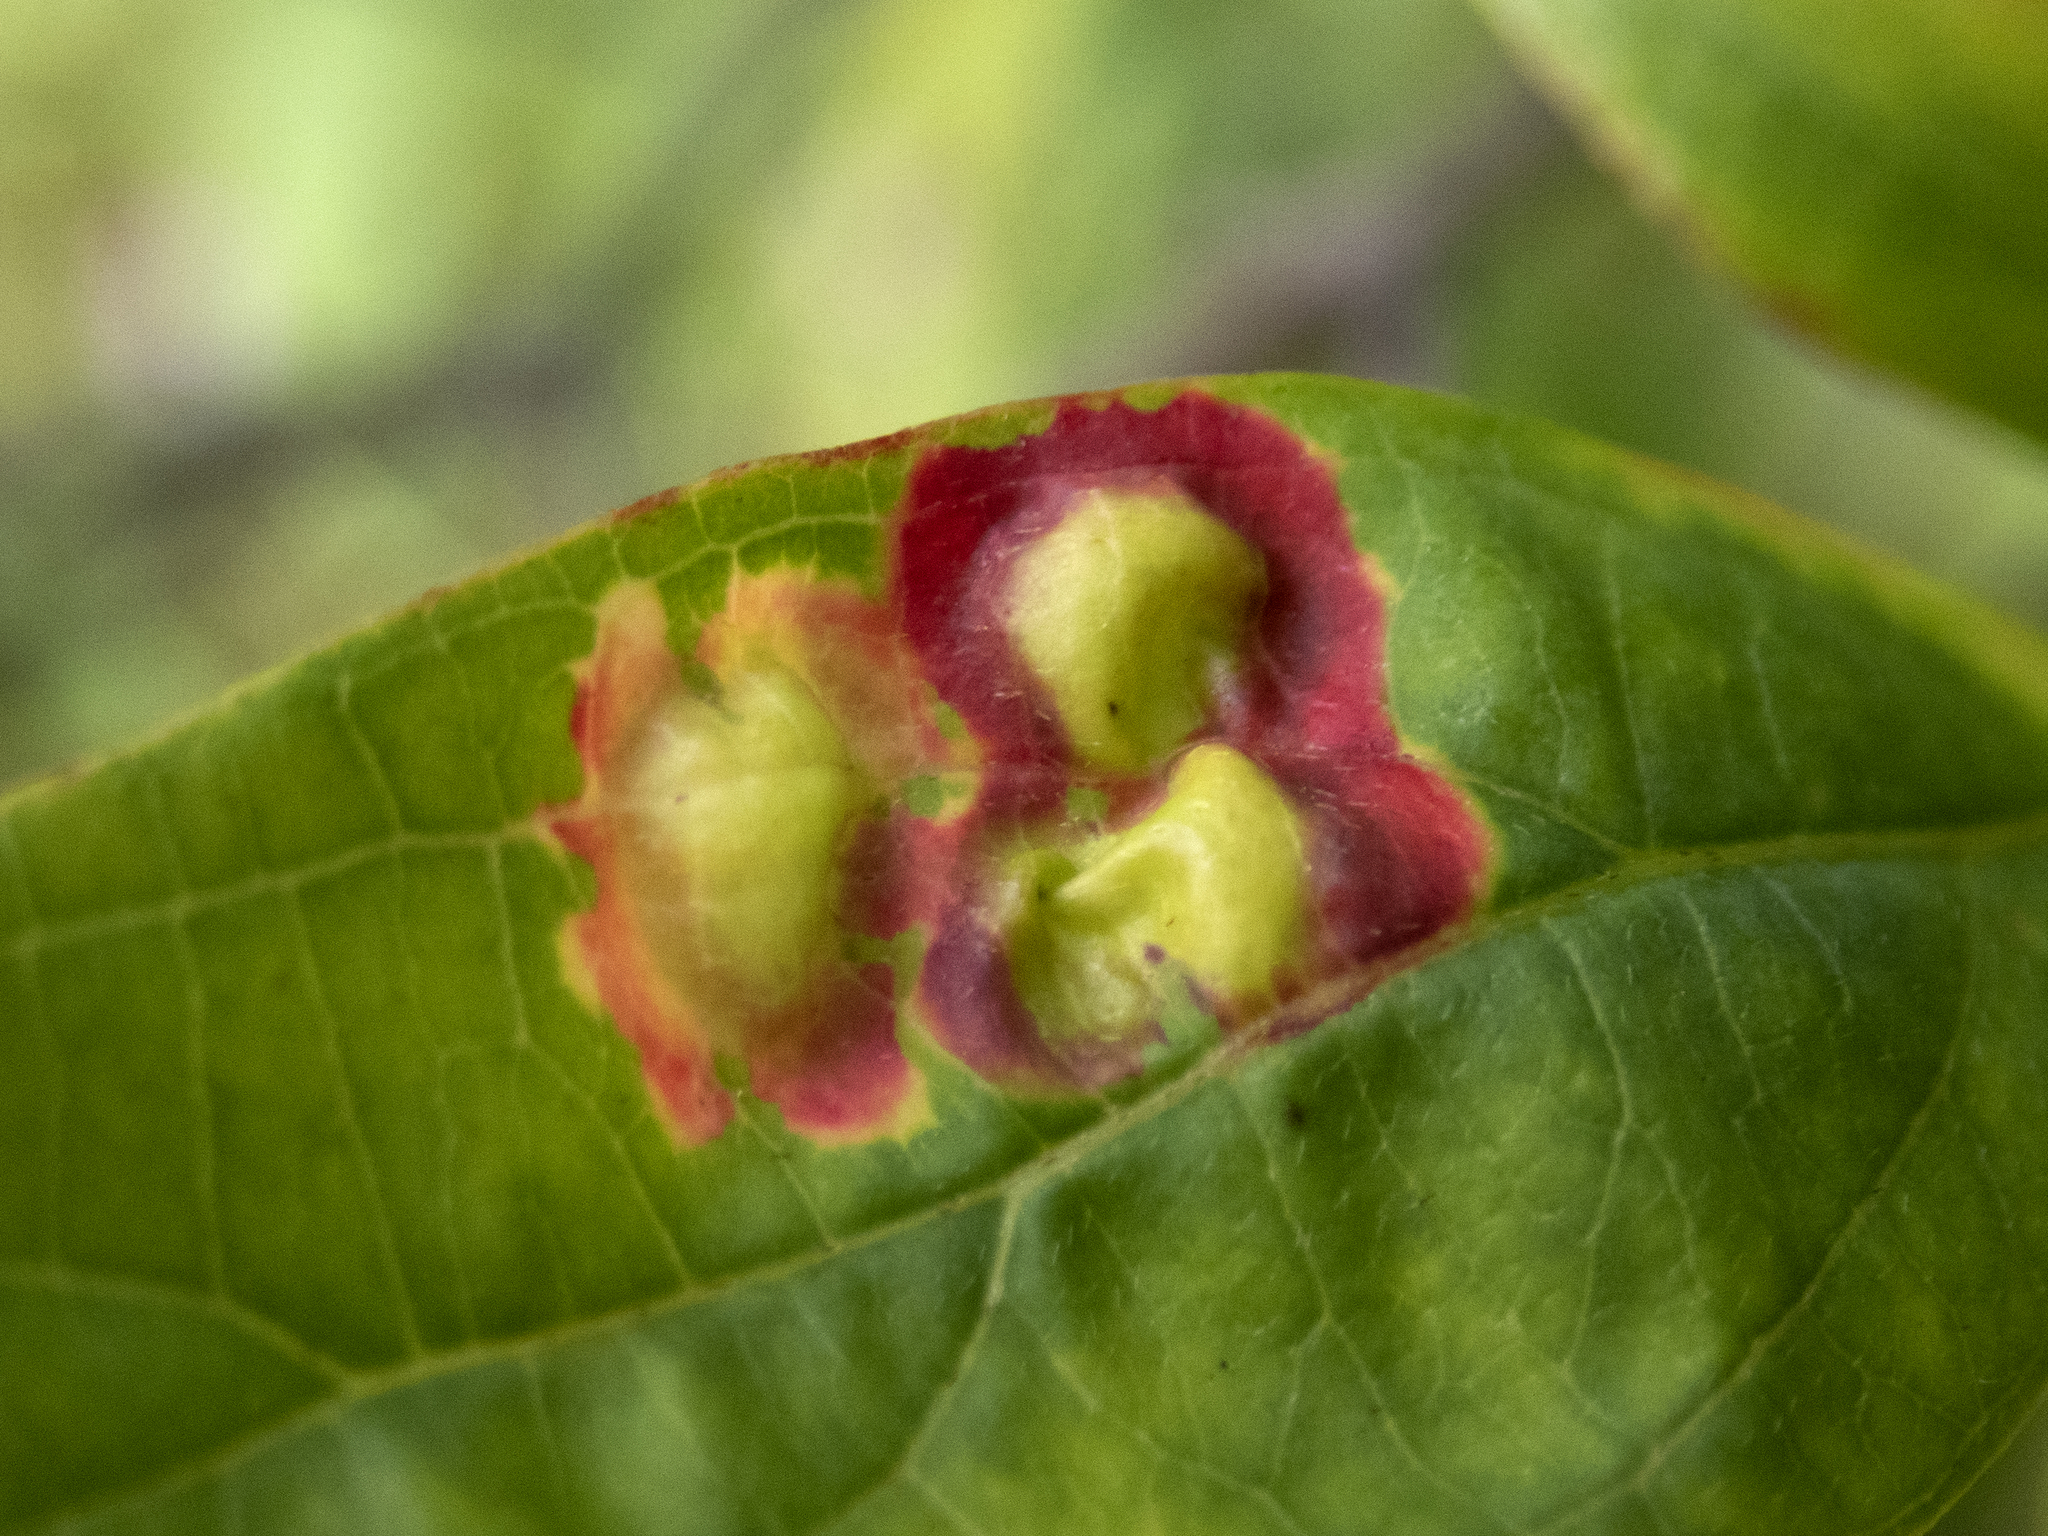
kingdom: Animalia
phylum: Arthropoda
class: Insecta
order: Diptera
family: Cecidomyiidae
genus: Parallelodiplosis
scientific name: Parallelodiplosis subtruncata
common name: Dogwood eyespot gall midge
